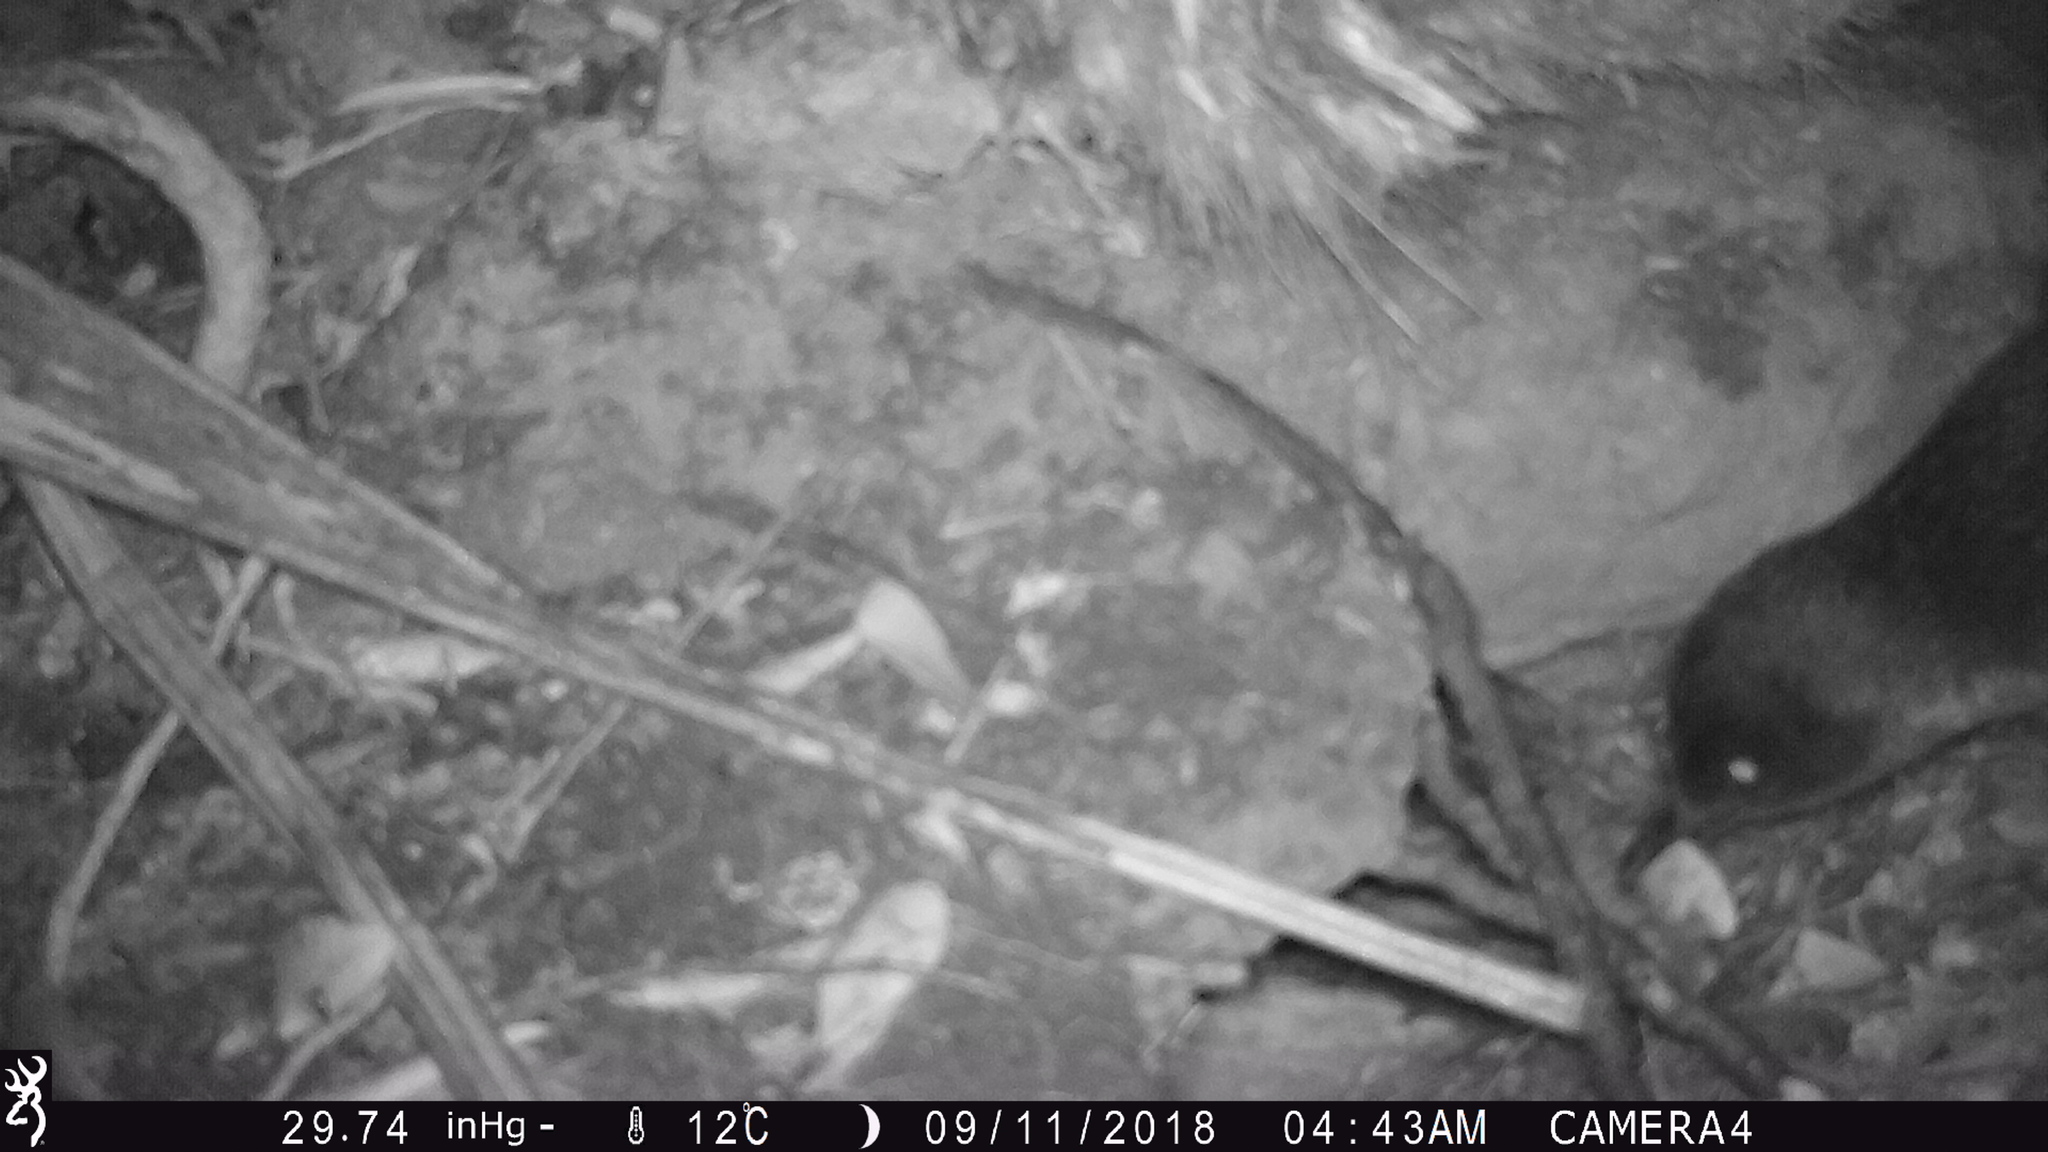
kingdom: Animalia
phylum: Chordata
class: Aves
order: Sphenisciformes
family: Spheniscidae
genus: Eudyptula
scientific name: Eudyptula minor
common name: Little penguin
